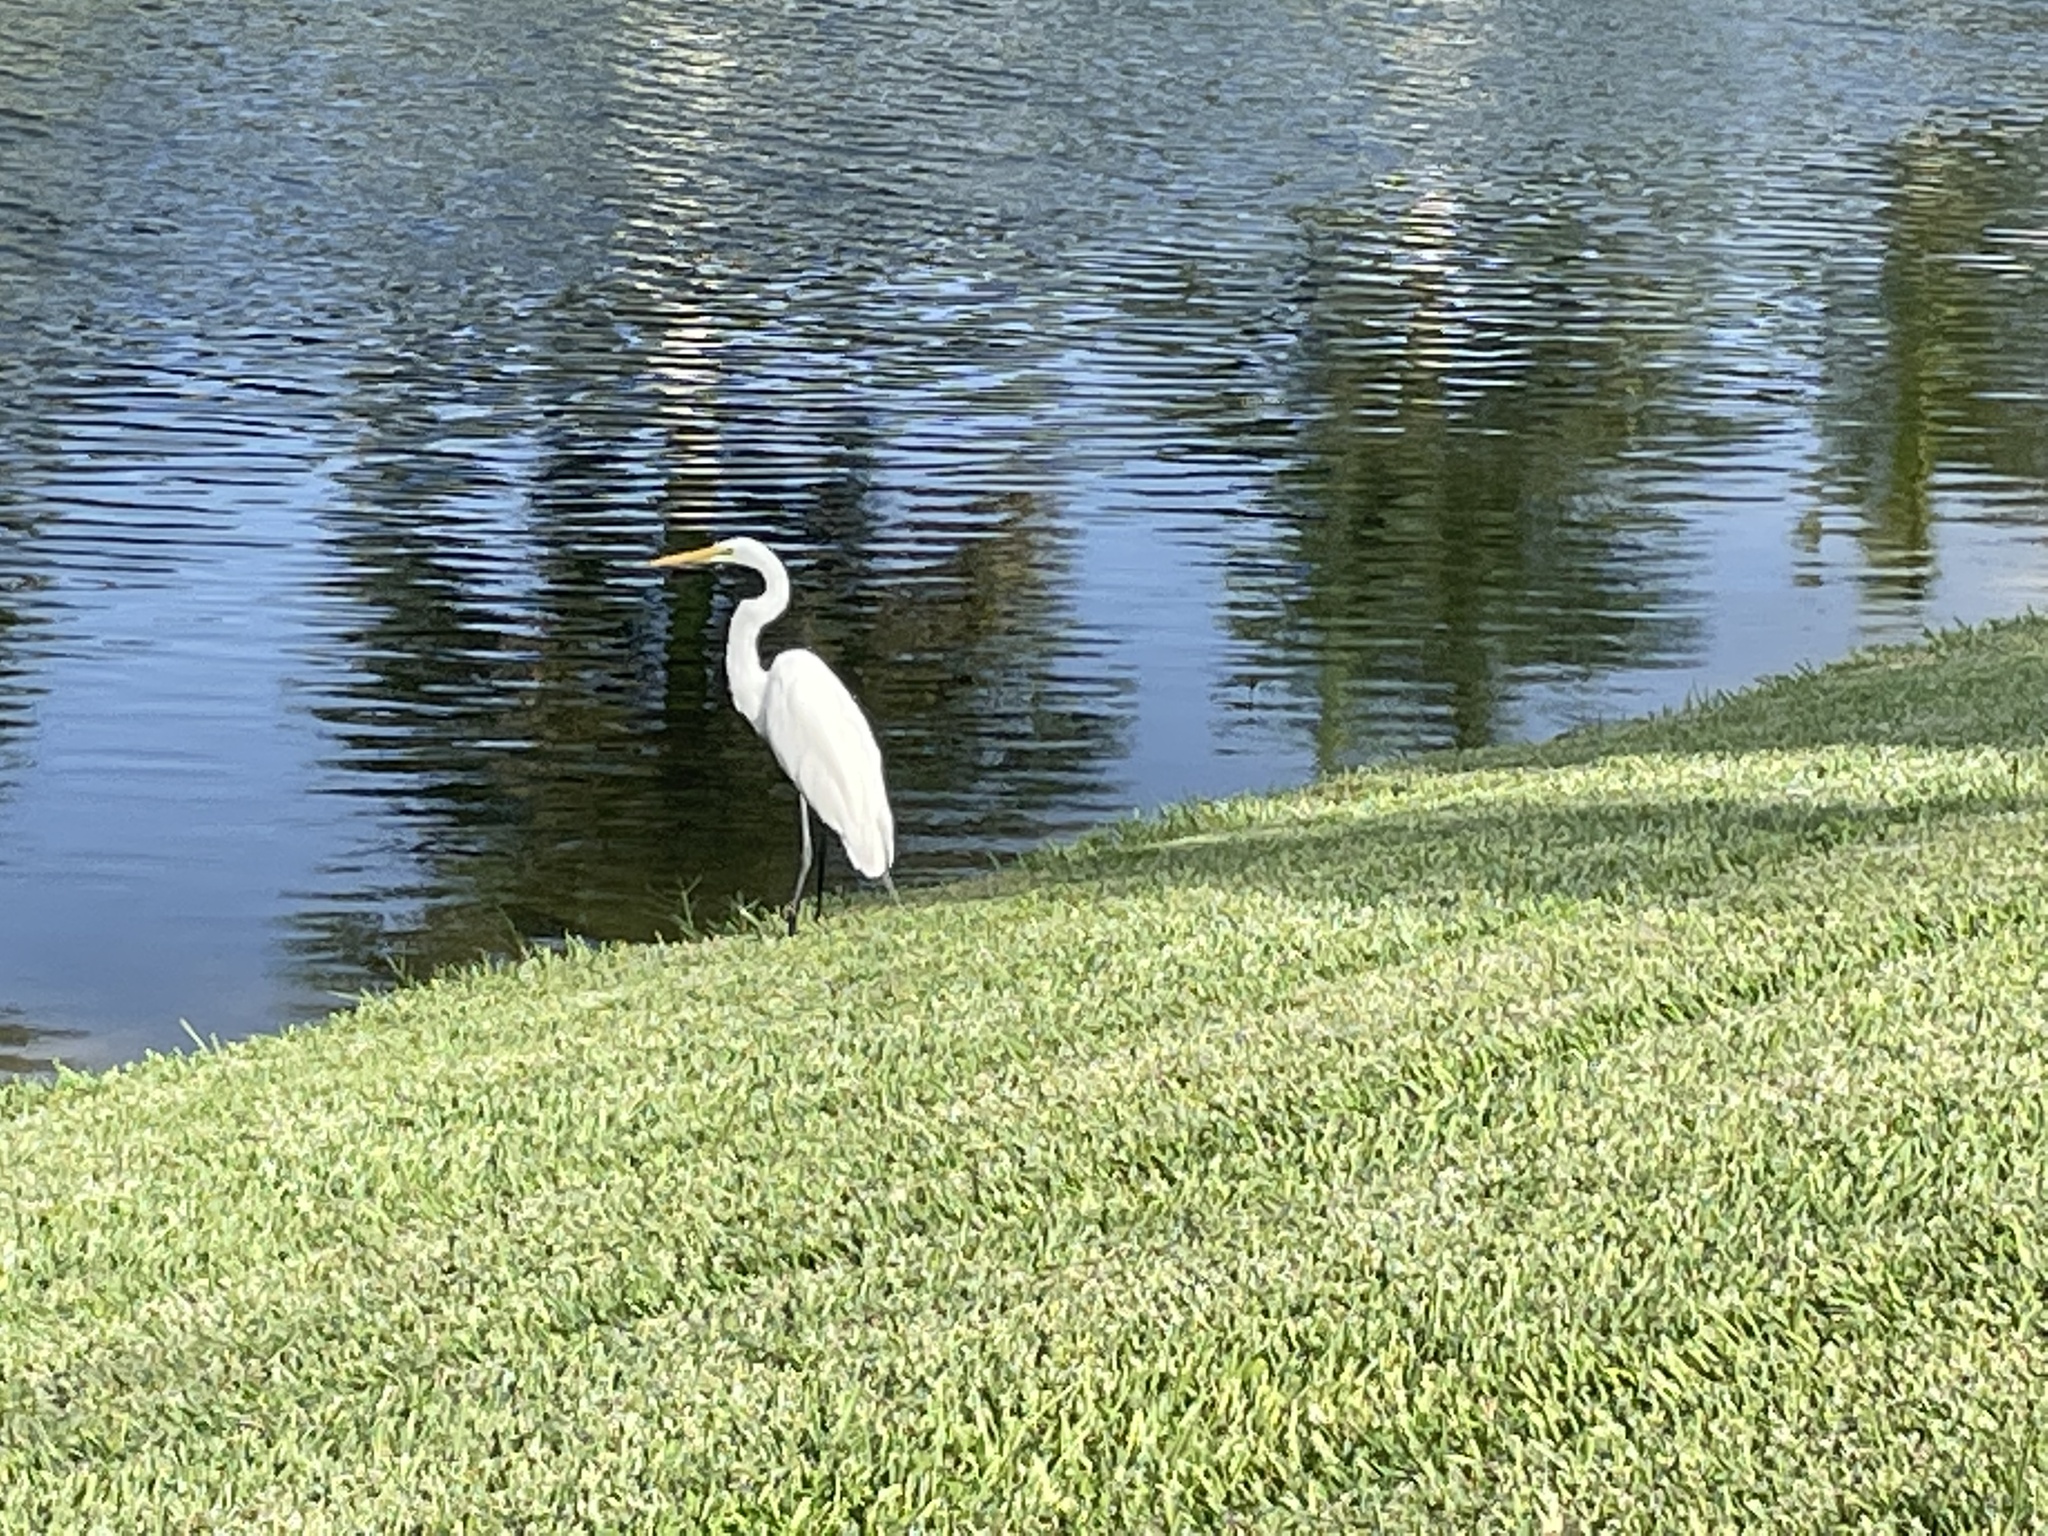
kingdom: Animalia
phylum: Chordata
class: Aves
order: Pelecaniformes
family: Ardeidae
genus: Ardea
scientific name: Ardea alba
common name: Great egret
